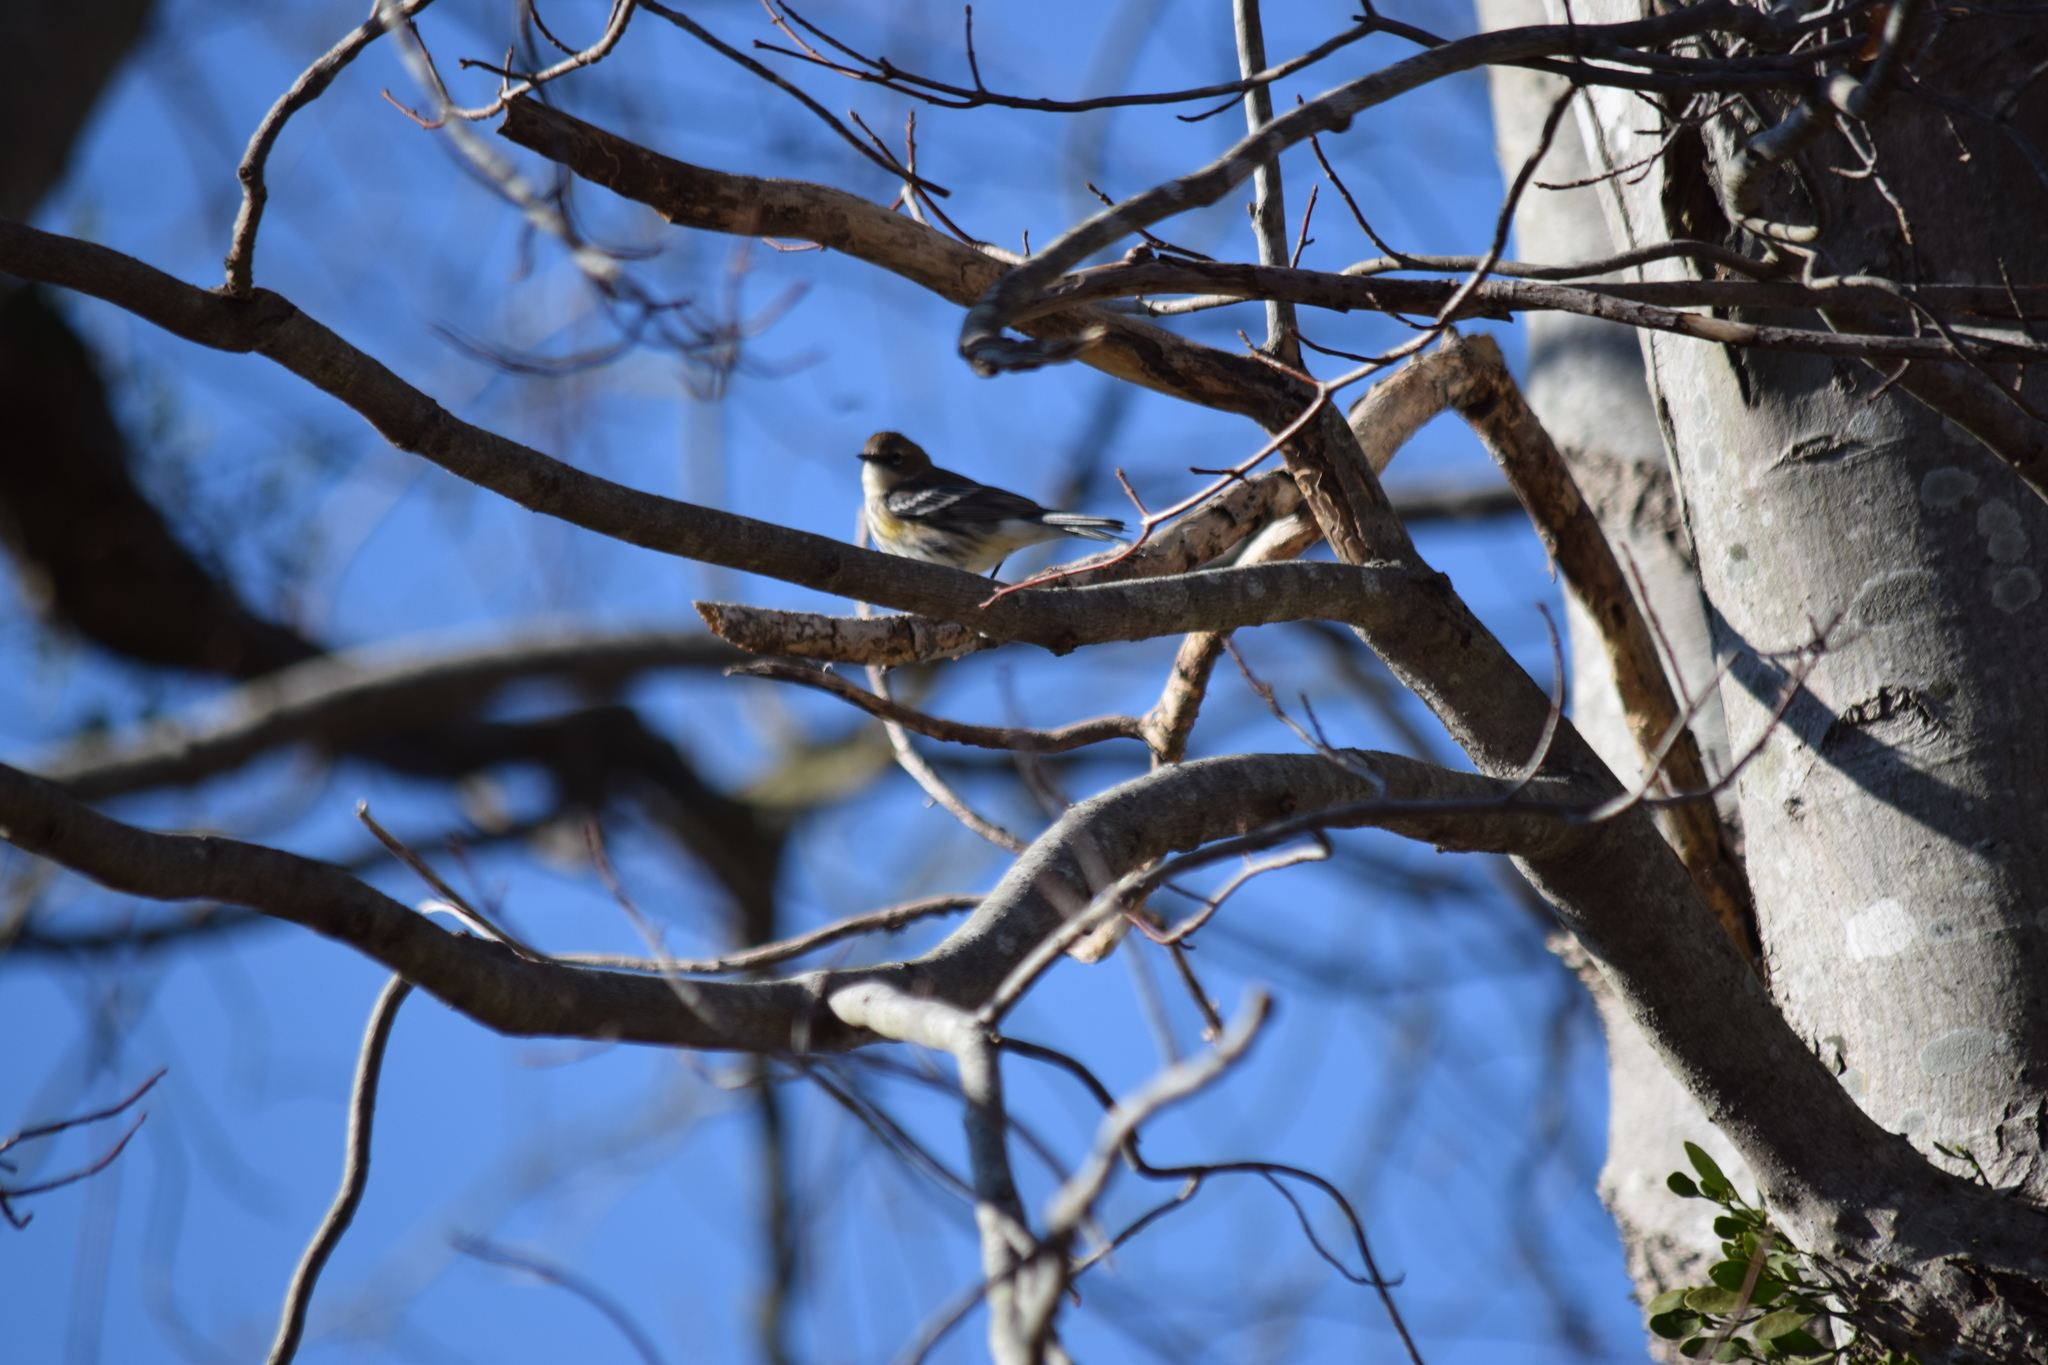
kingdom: Animalia
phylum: Chordata
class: Aves
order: Passeriformes
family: Parulidae
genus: Setophaga
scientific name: Setophaga coronata
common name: Myrtle warbler
